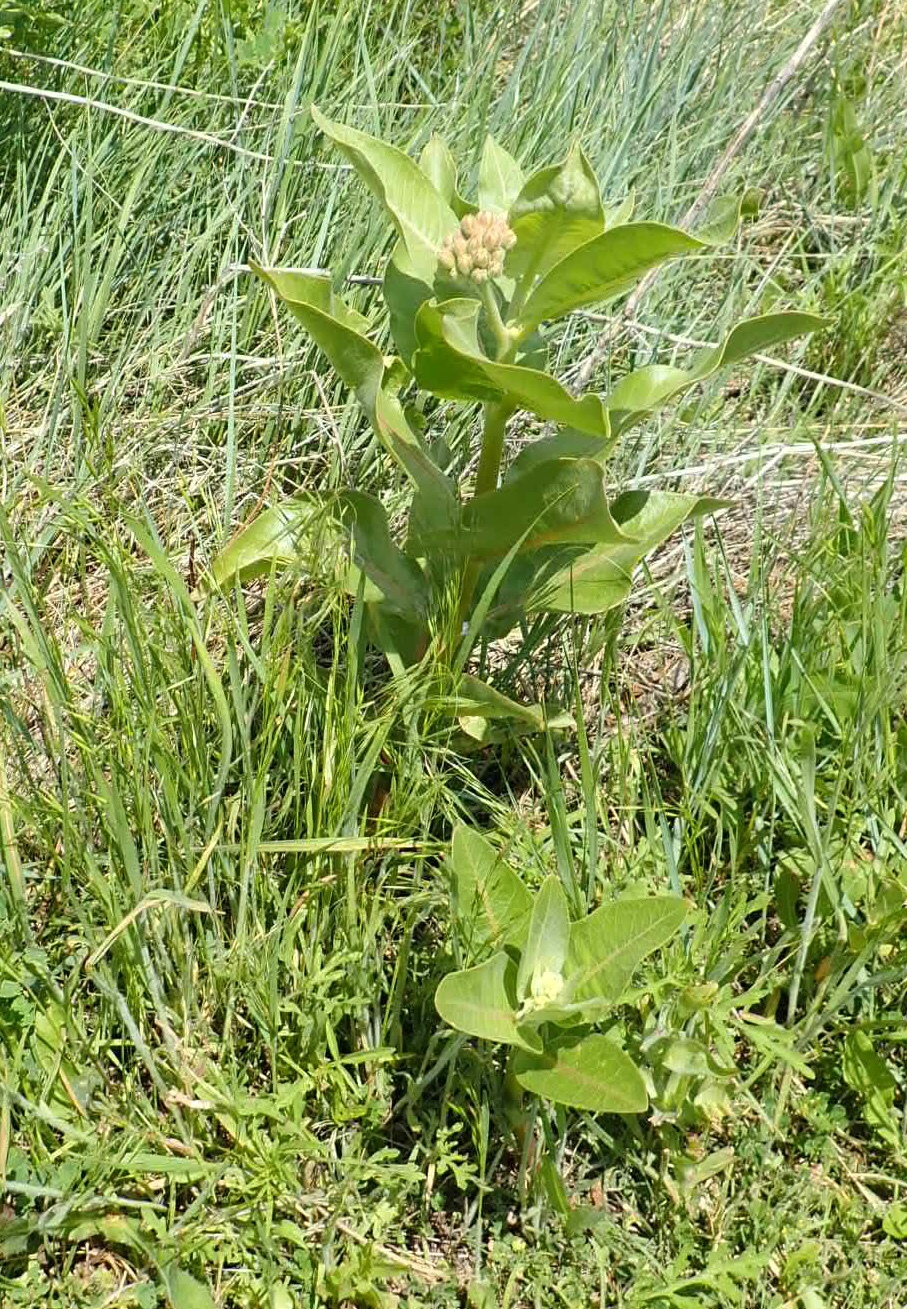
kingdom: Plantae
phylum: Tracheophyta
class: Magnoliopsida
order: Gentianales
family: Apocynaceae
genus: Asclepias
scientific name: Asclepias speciosa
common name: Showy milkweed
